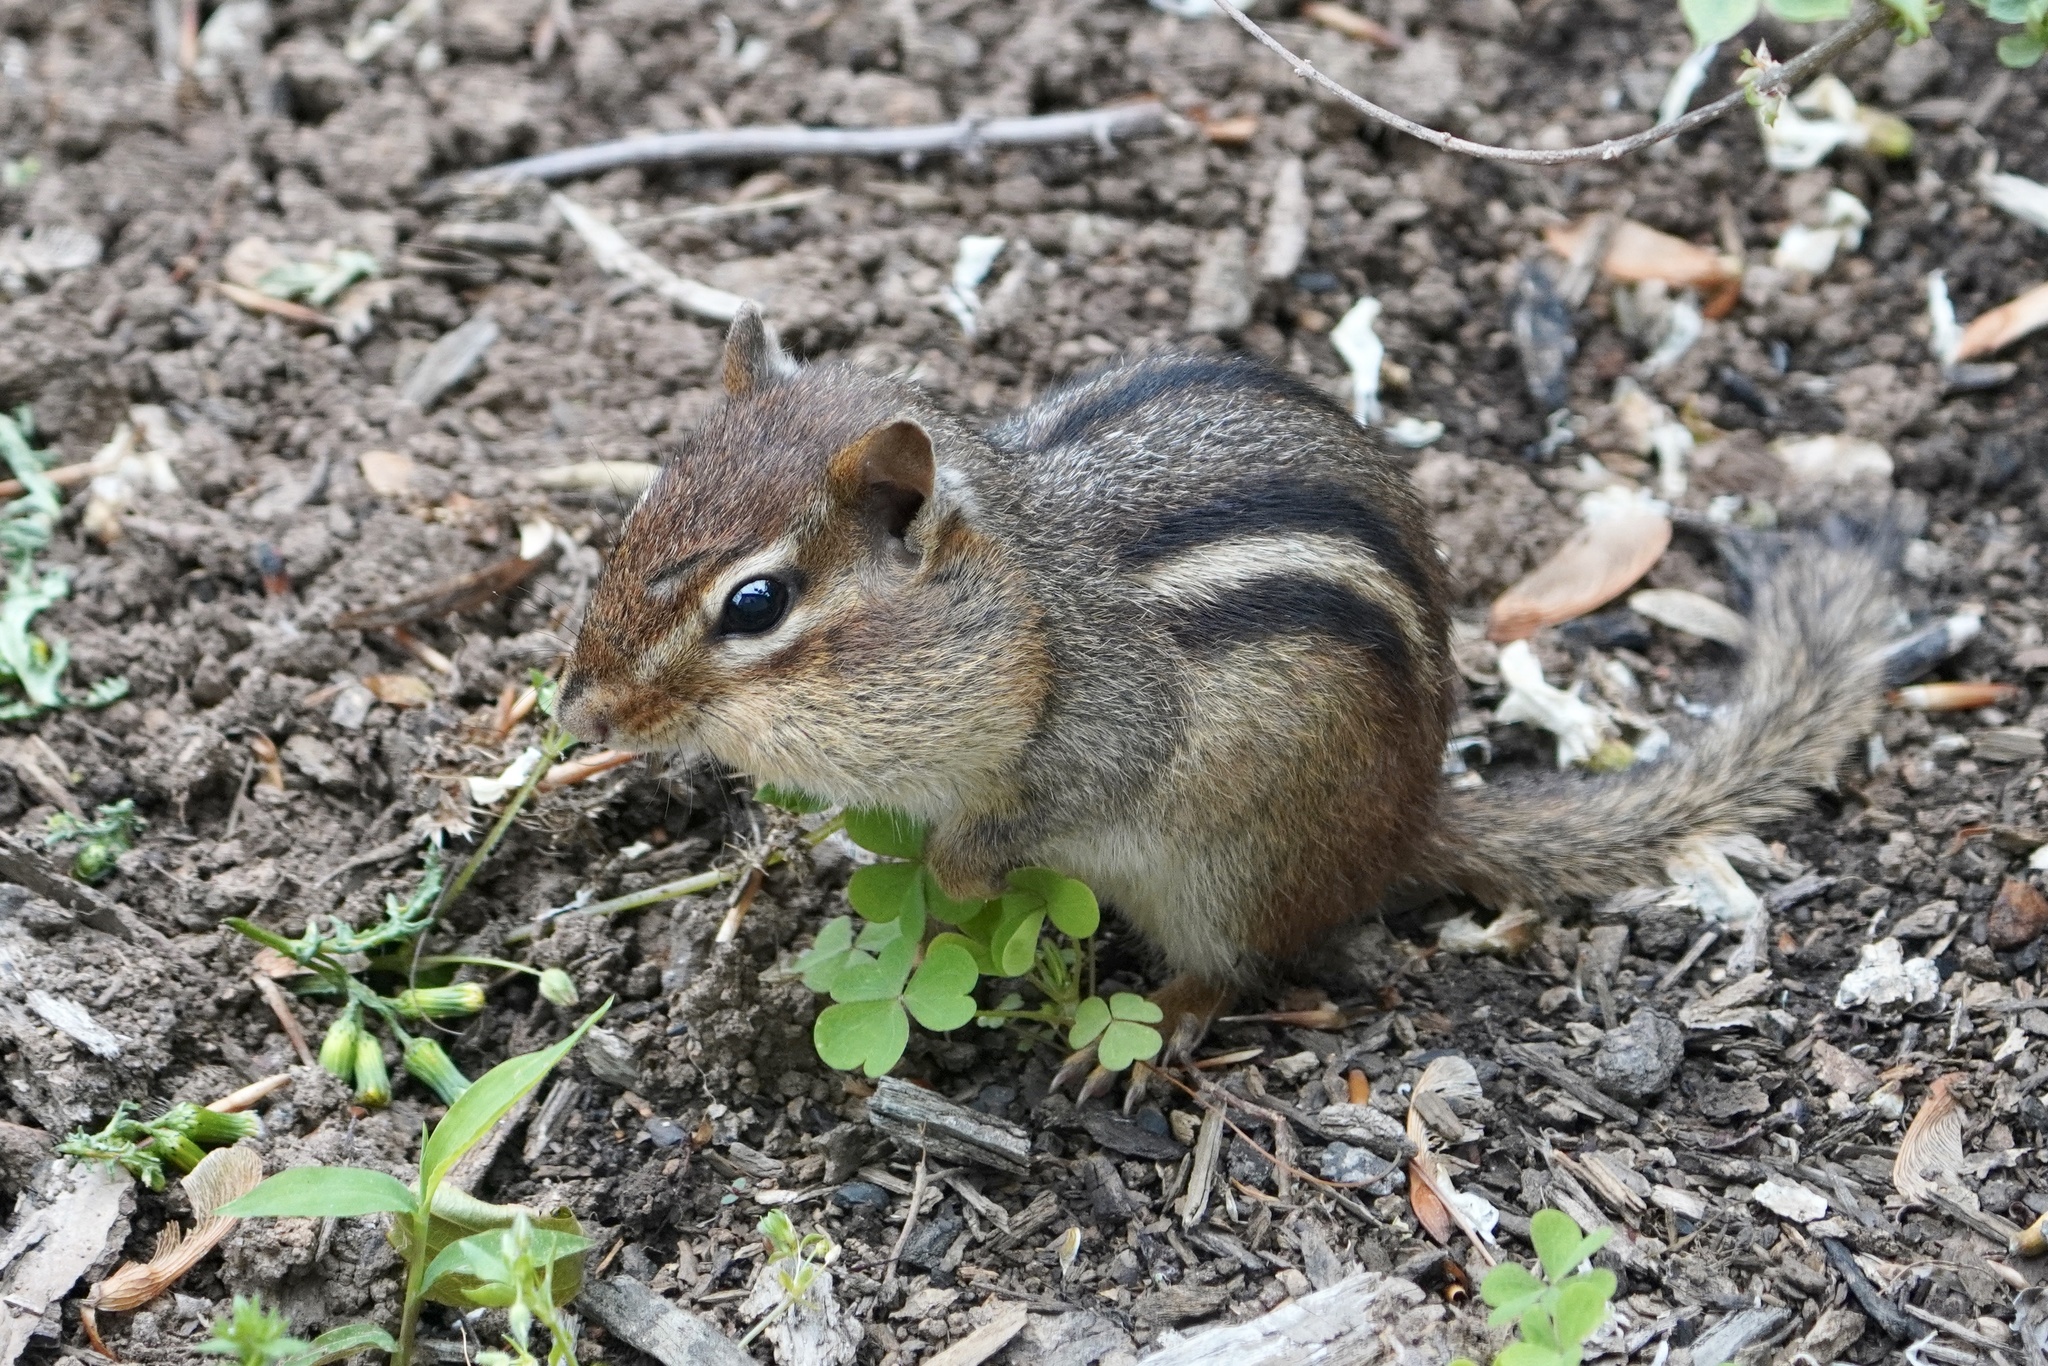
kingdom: Animalia
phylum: Chordata
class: Mammalia
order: Rodentia
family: Sciuridae
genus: Tamias
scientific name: Tamias striatus
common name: Eastern chipmunk
